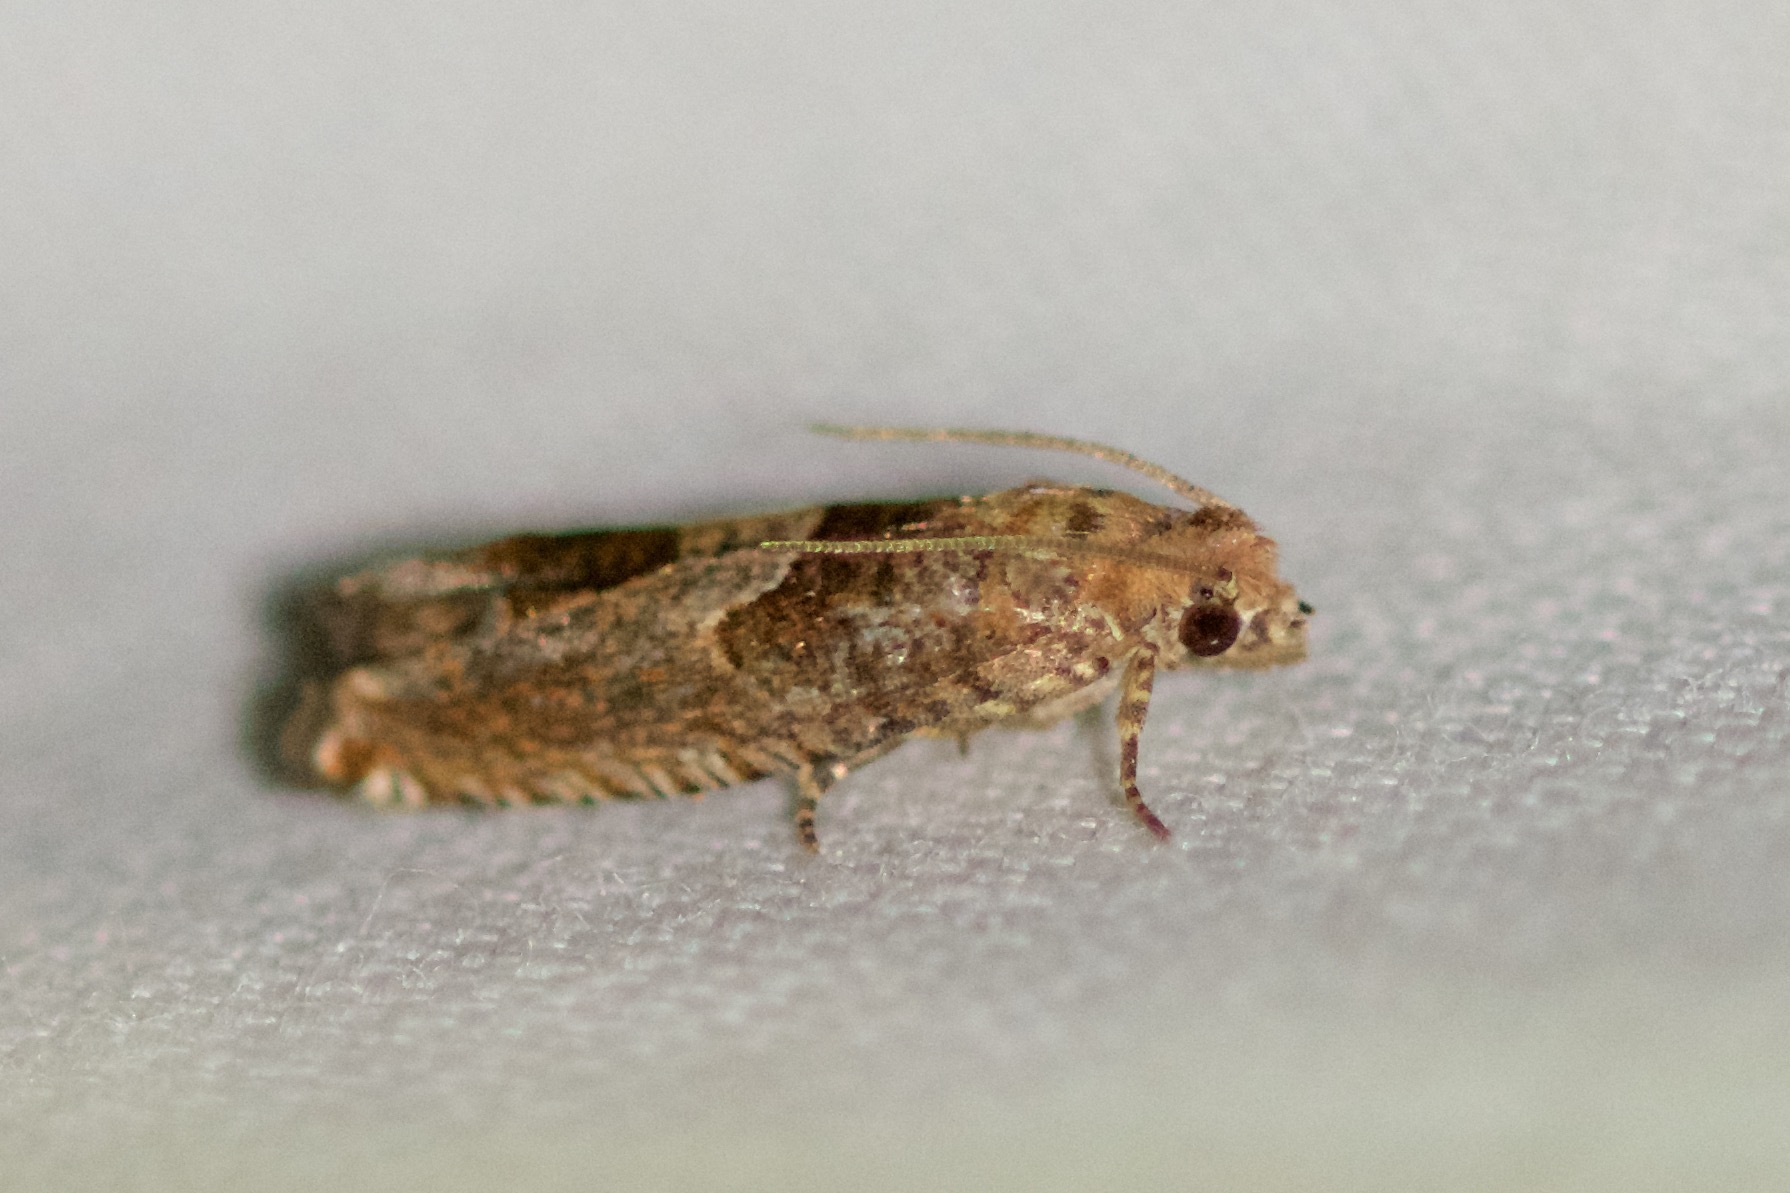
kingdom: Animalia
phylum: Arthropoda
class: Insecta
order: Lepidoptera
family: Tortricidae
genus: Sonia
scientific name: Sonia canadana
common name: Canadian sonia moth
